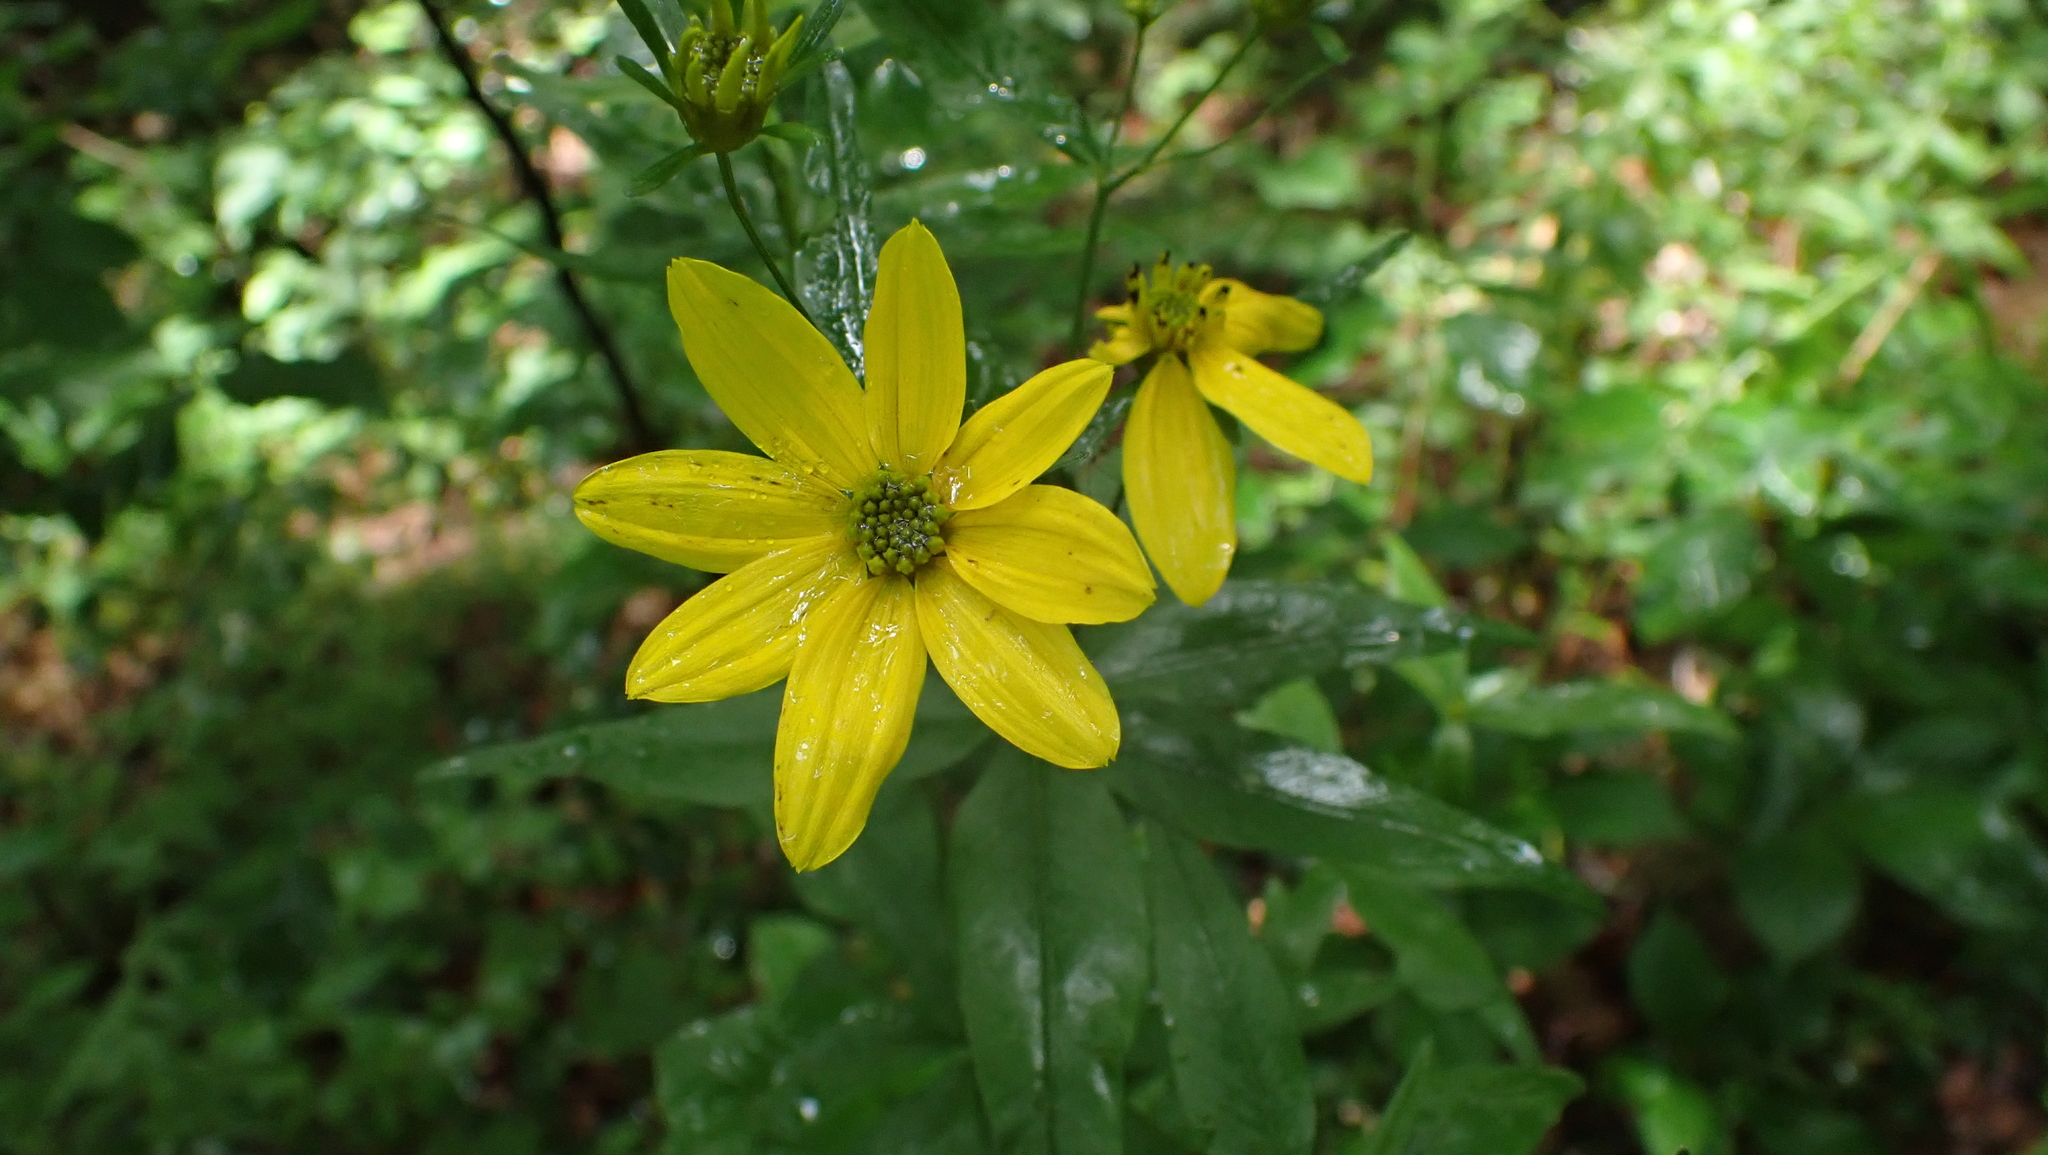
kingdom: Plantae
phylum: Tracheophyta
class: Magnoliopsida
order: Asterales
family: Asteraceae
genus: Coreopsis
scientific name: Coreopsis major
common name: Forest tickseed
